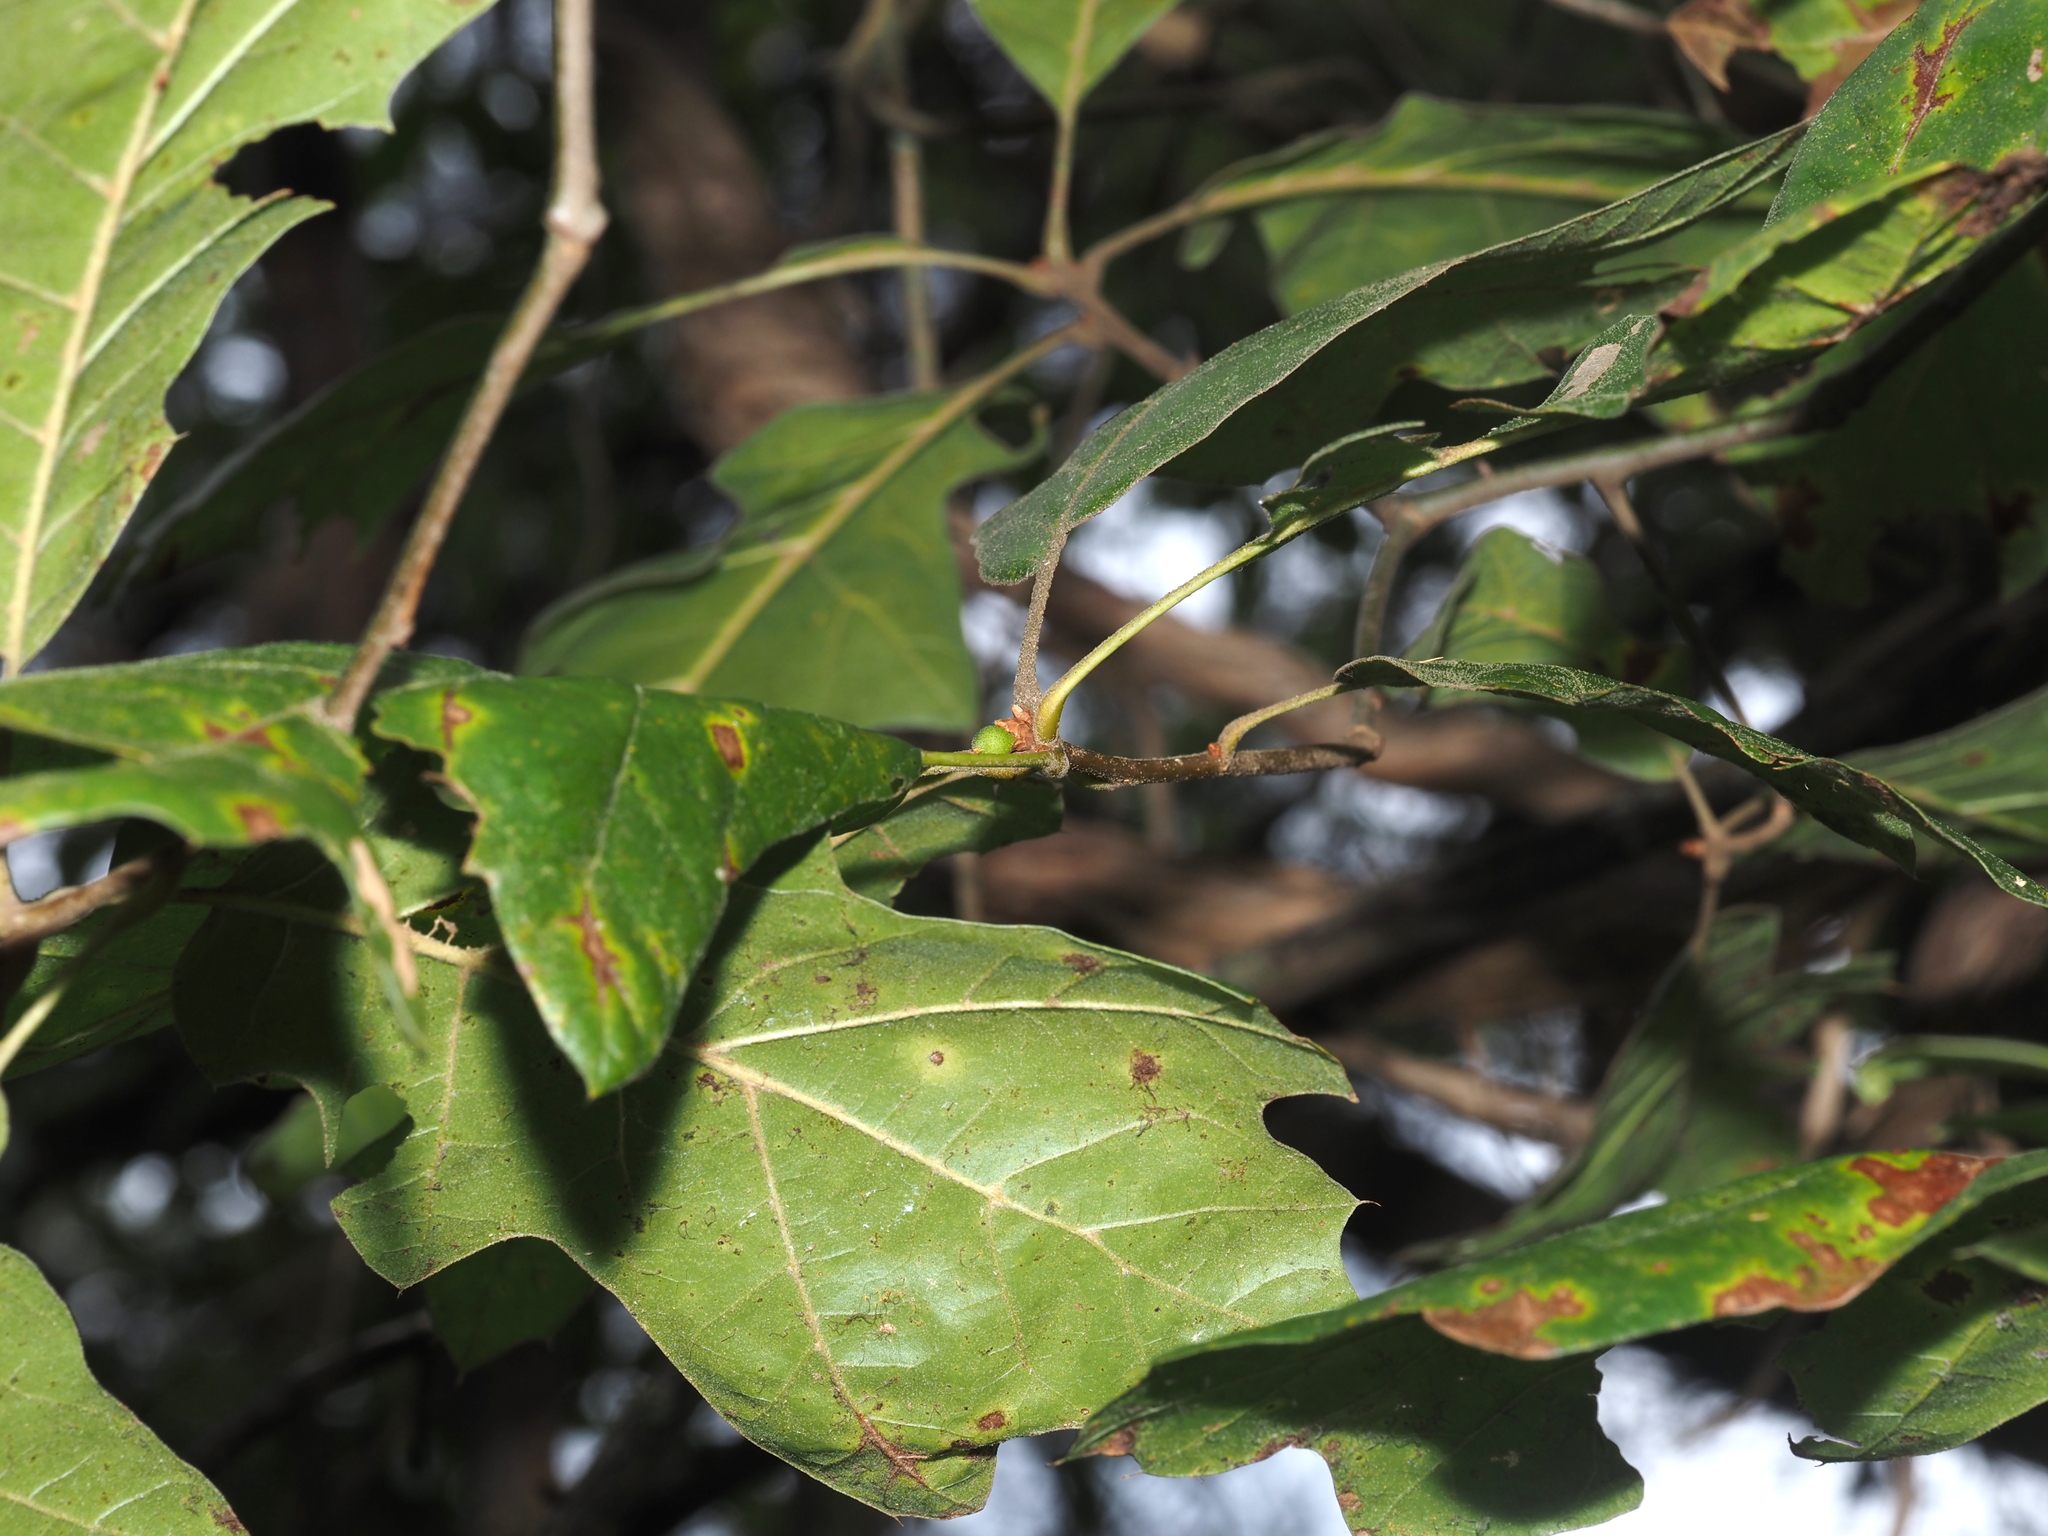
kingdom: Animalia
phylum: Arthropoda
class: Insecta
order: Hymenoptera
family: Cynipidae
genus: Amphibolips
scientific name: Amphibolips
